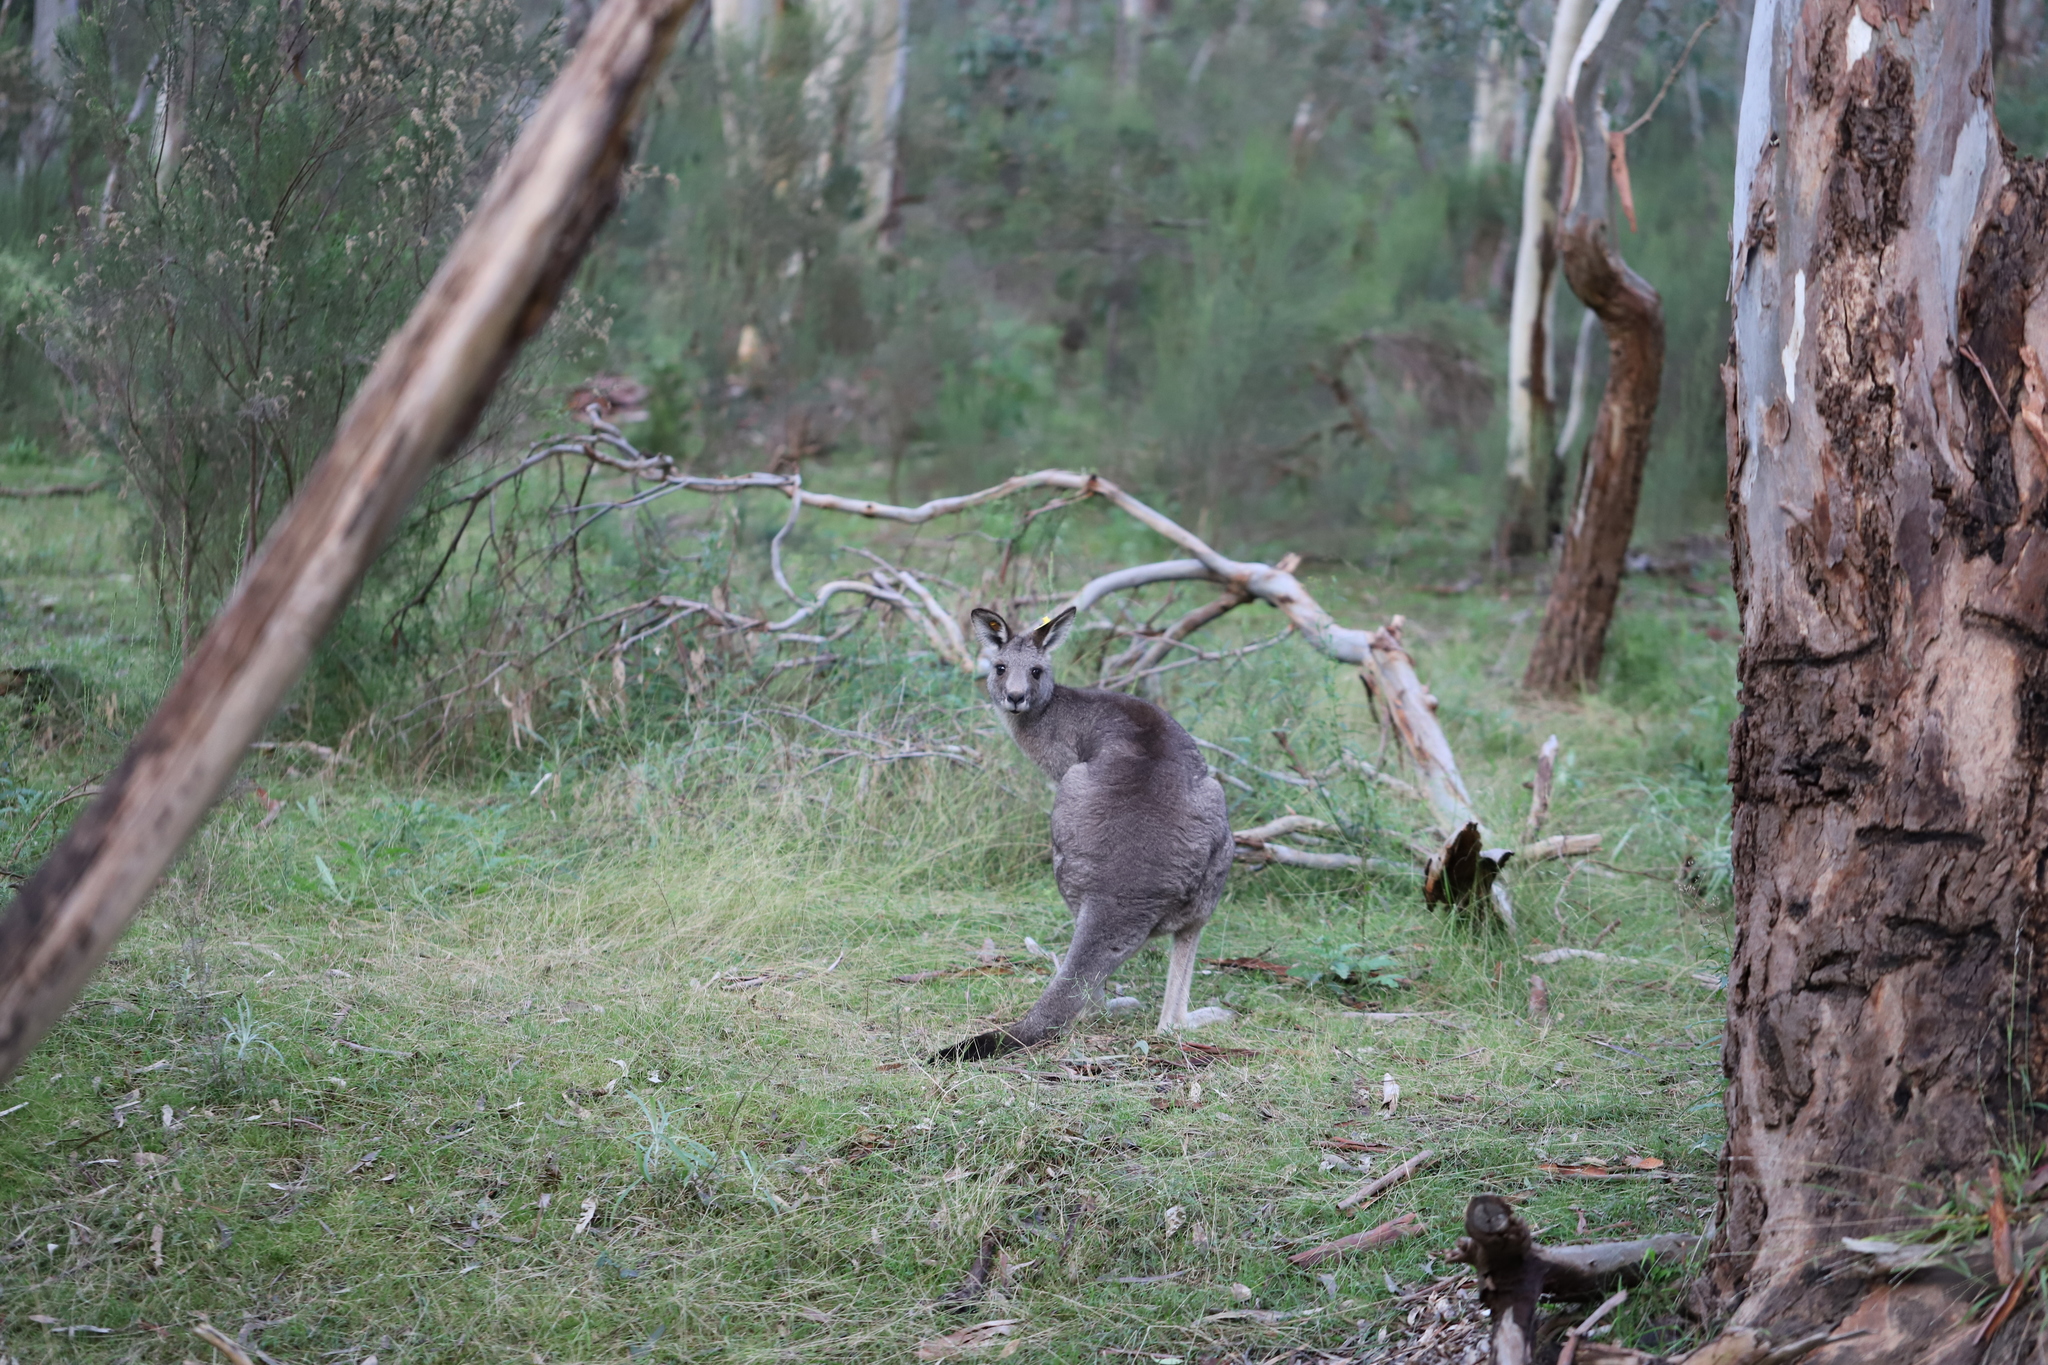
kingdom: Animalia
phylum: Chordata
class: Mammalia
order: Diprotodontia
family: Macropodidae
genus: Macropus
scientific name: Macropus giganteus
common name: Eastern grey kangaroo
